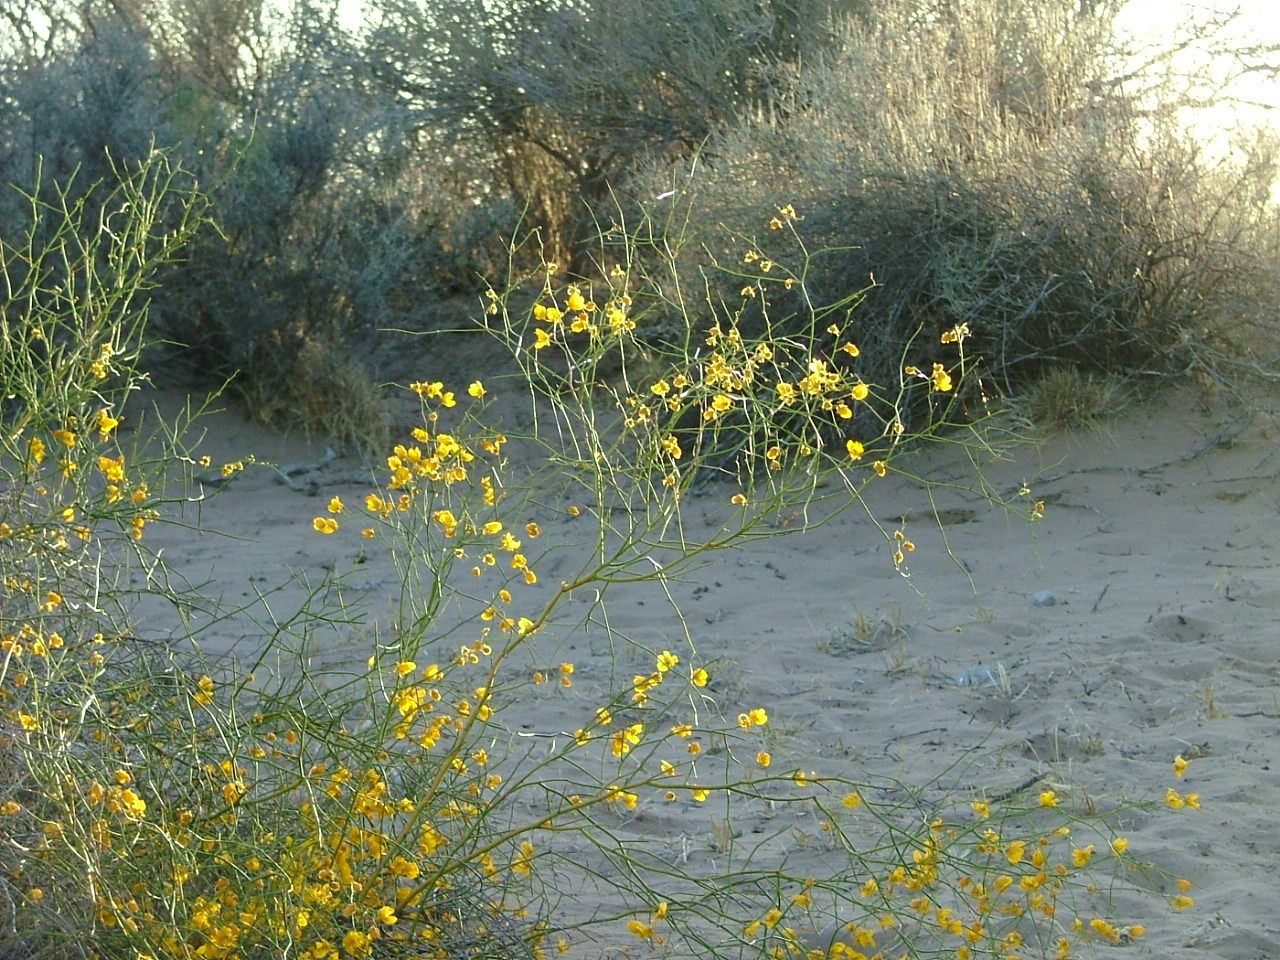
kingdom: Plantae
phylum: Tracheophyta
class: Magnoliopsida
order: Fabales
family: Fabaceae
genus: Senna
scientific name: Senna aphylla
